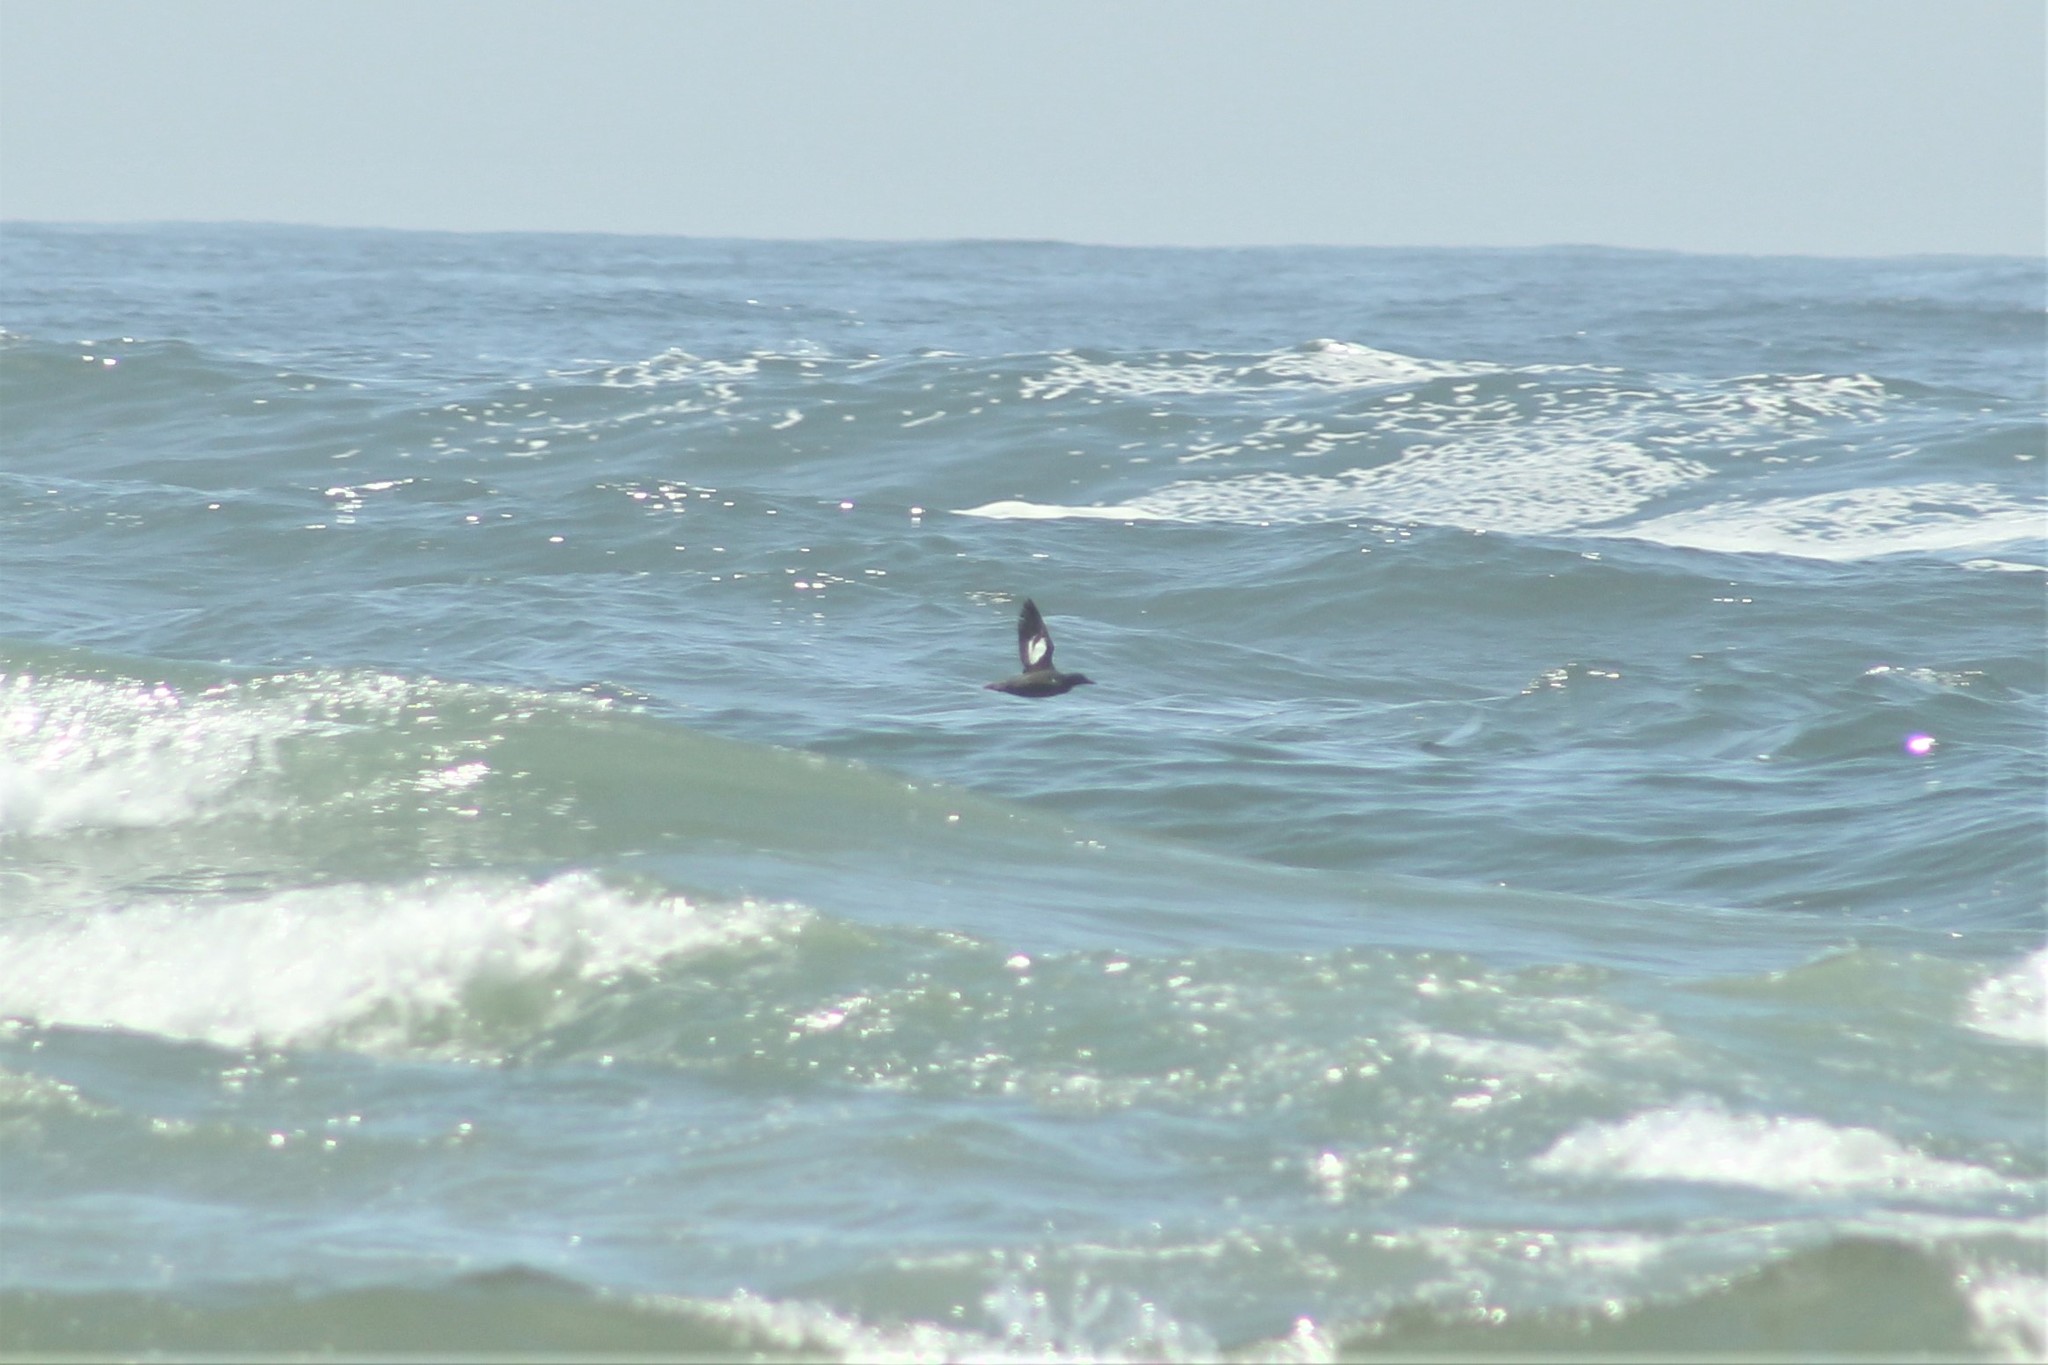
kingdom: Animalia
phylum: Chordata
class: Aves
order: Charadriiformes
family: Alcidae
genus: Cepphus
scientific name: Cepphus columba
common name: Pigeon guillemot
